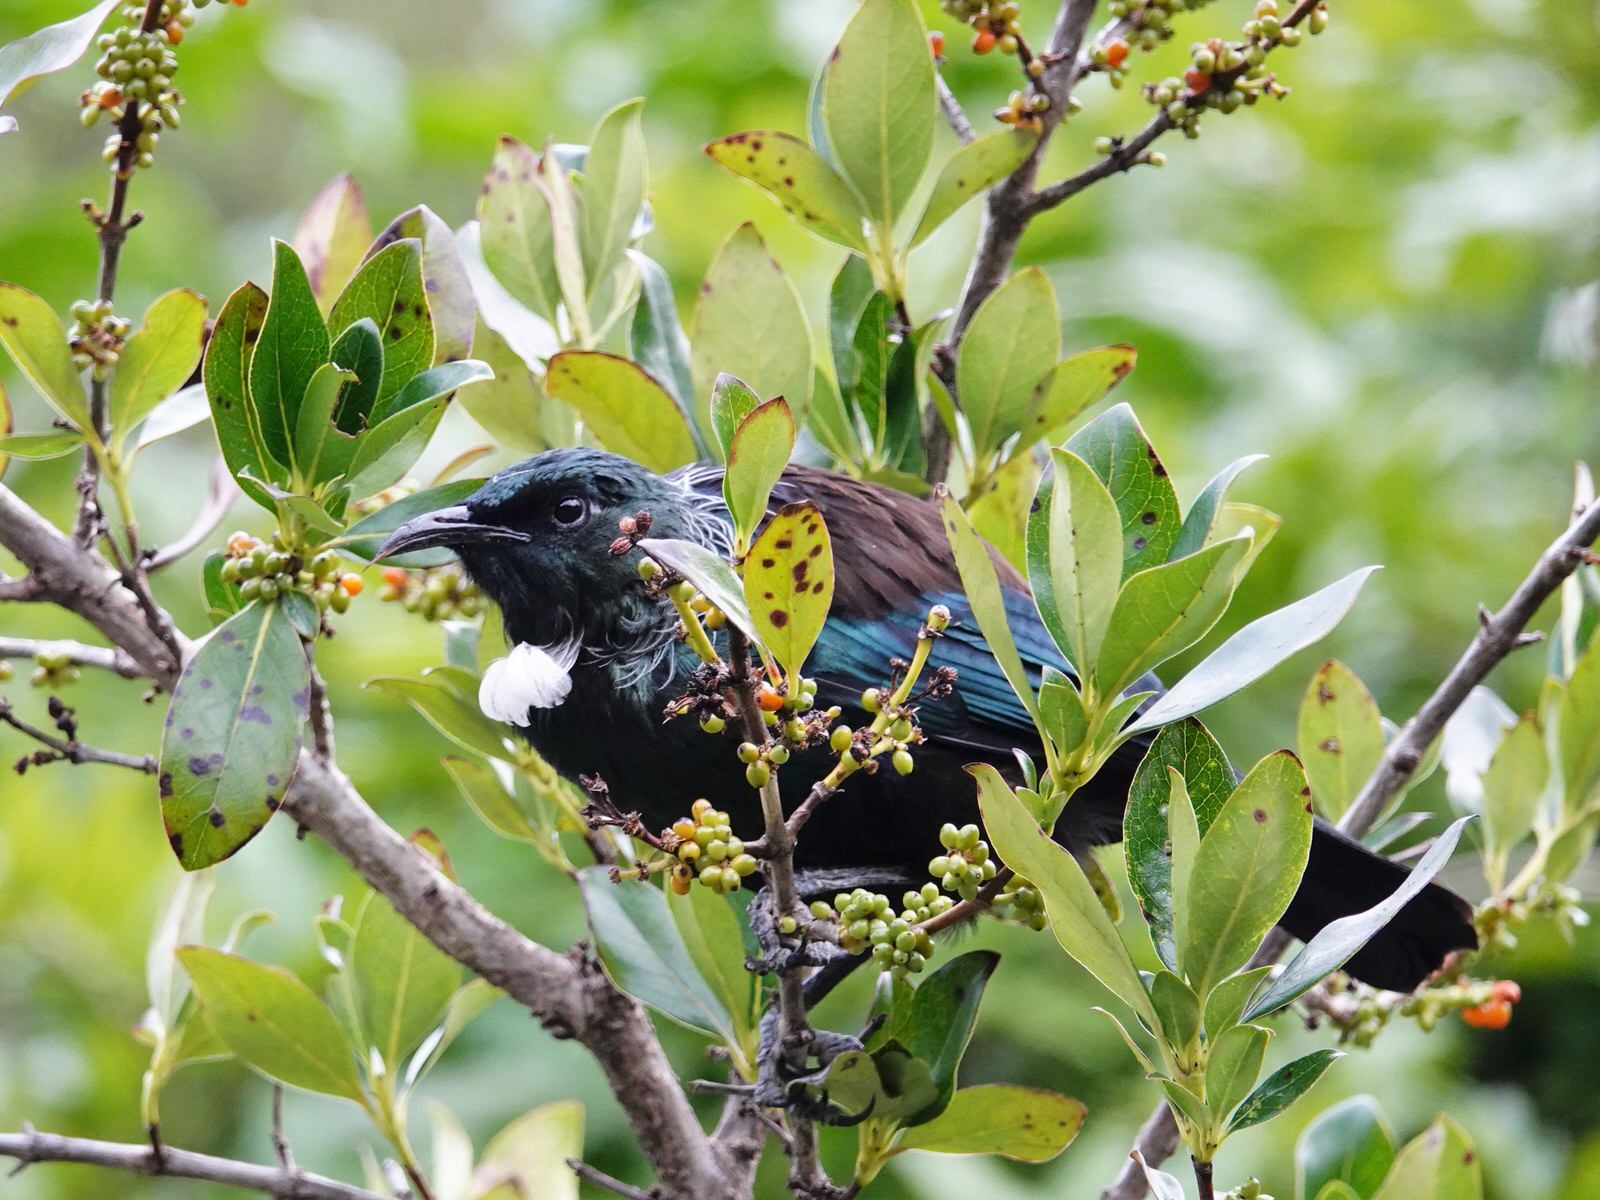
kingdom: Animalia
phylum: Chordata
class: Aves
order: Passeriformes
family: Meliphagidae
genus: Prosthemadera
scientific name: Prosthemadera novaeseelandiae
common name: Tui
